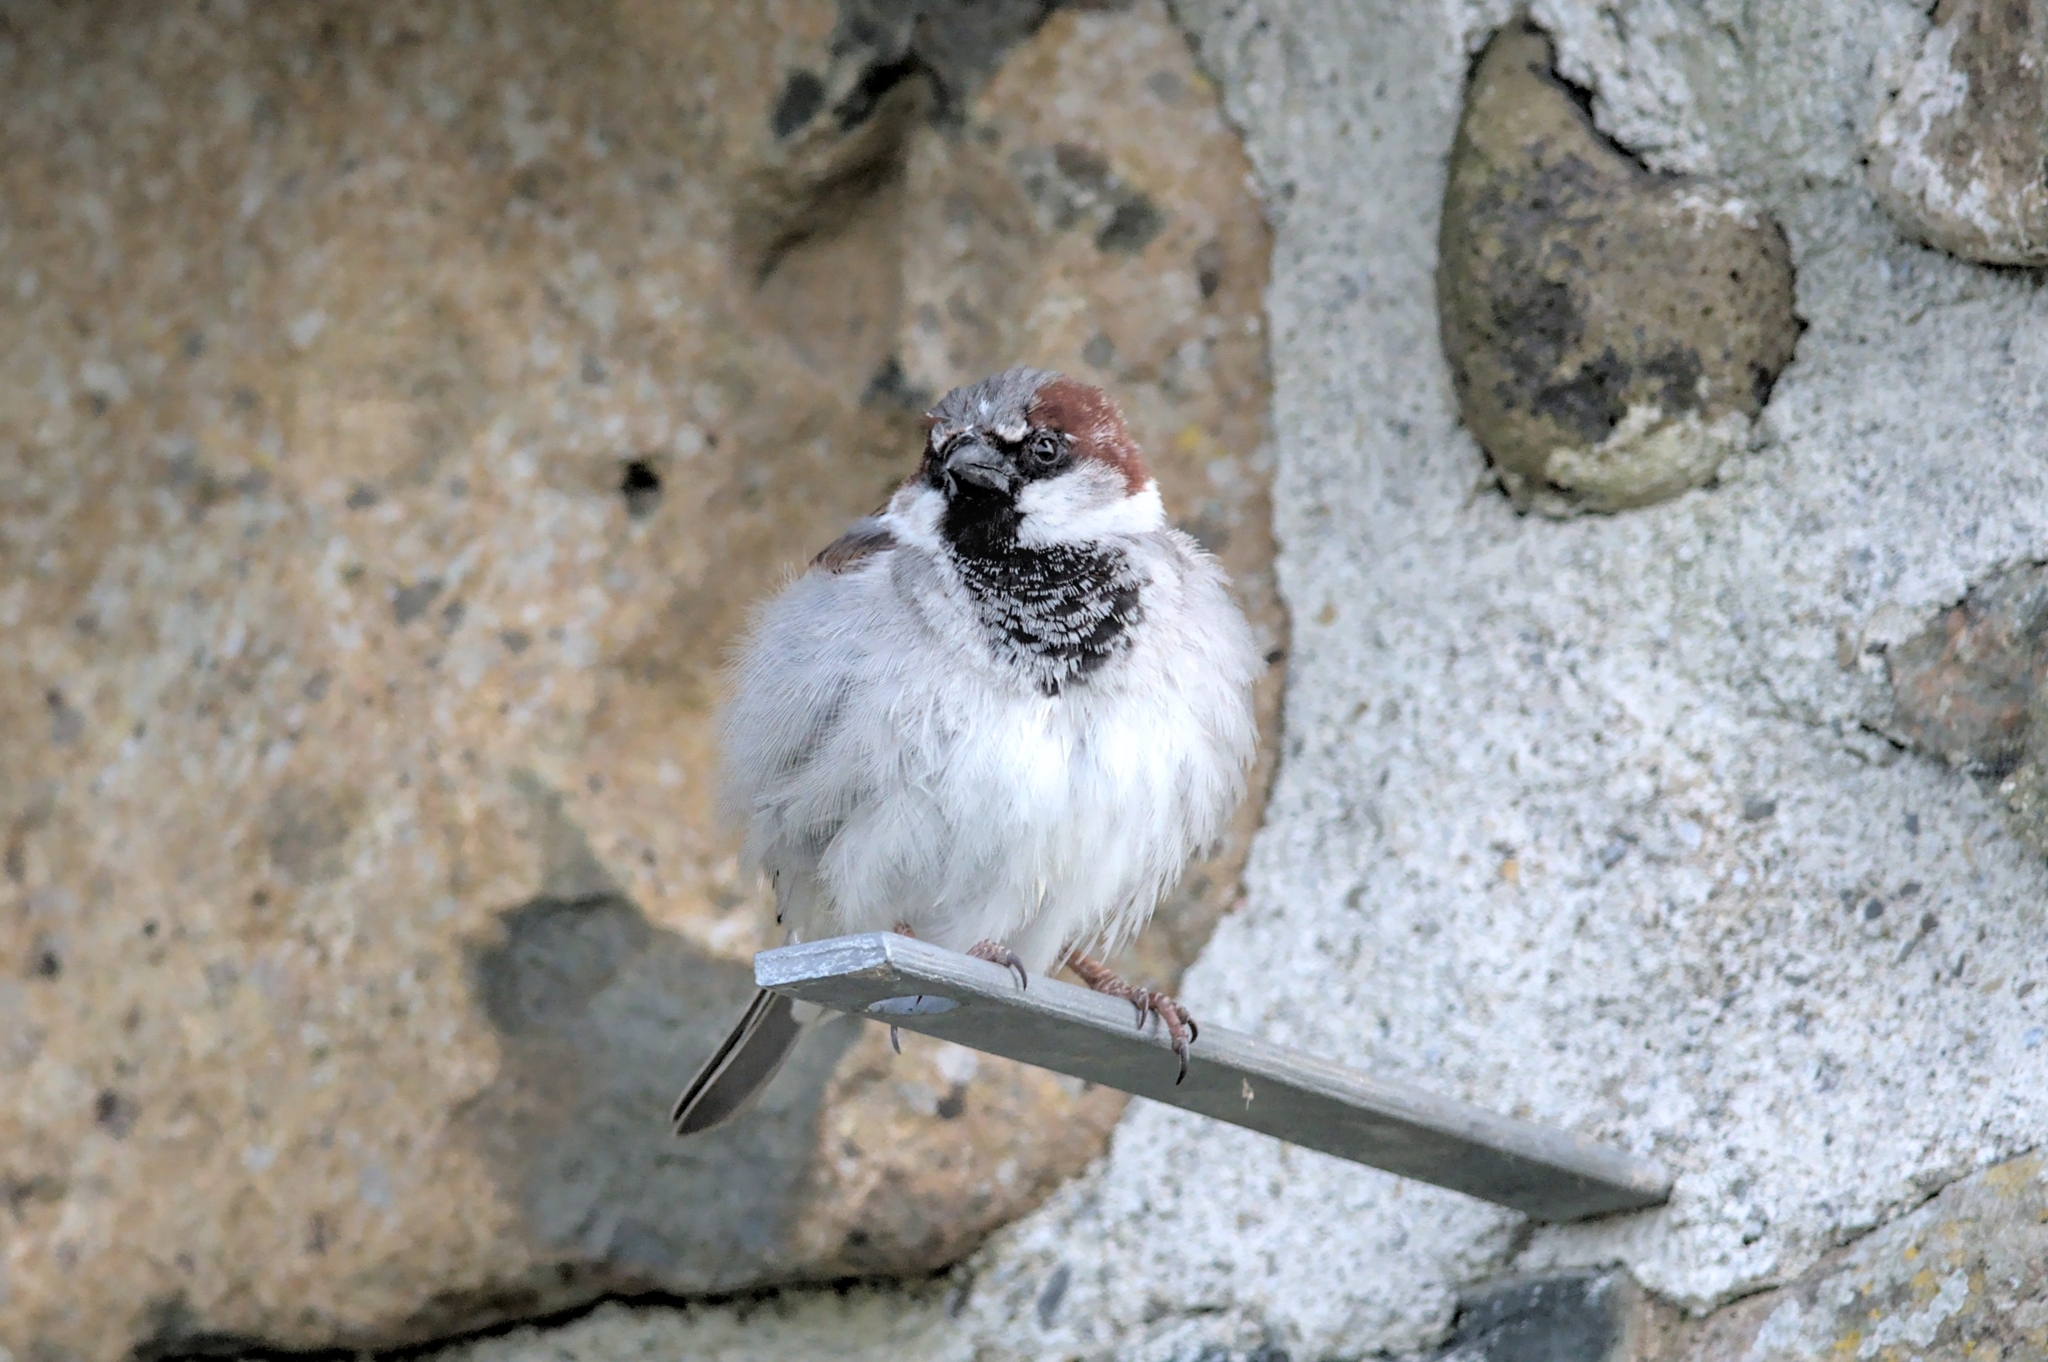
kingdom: Animalia
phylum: Chordata
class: Aves
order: Passeriformes
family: Passeridae
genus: Passer
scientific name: Passer domesticus
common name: House sparrow
